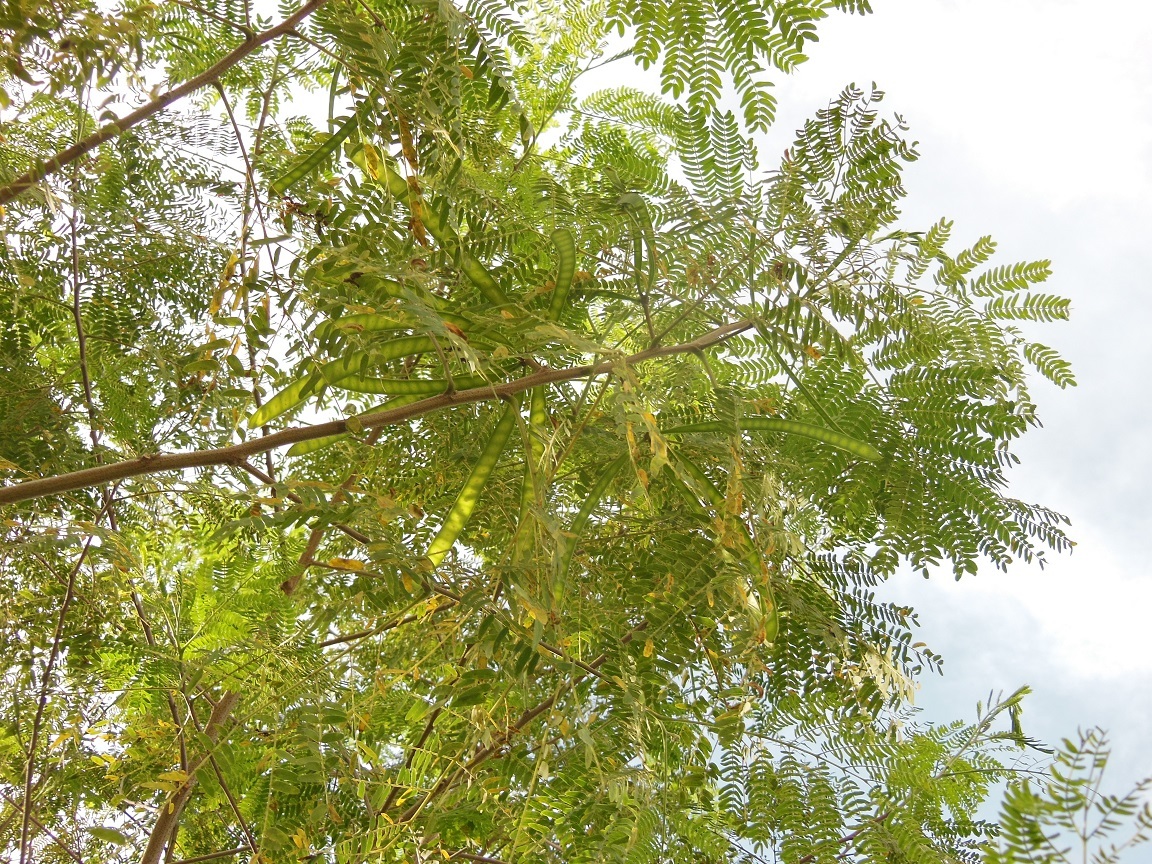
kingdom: Plantae
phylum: Tracheophyta
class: Magnoliopsida
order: Fabales
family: Fabaceae
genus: Leucaena
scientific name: Leucaena leucocephala
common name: White leadtree
